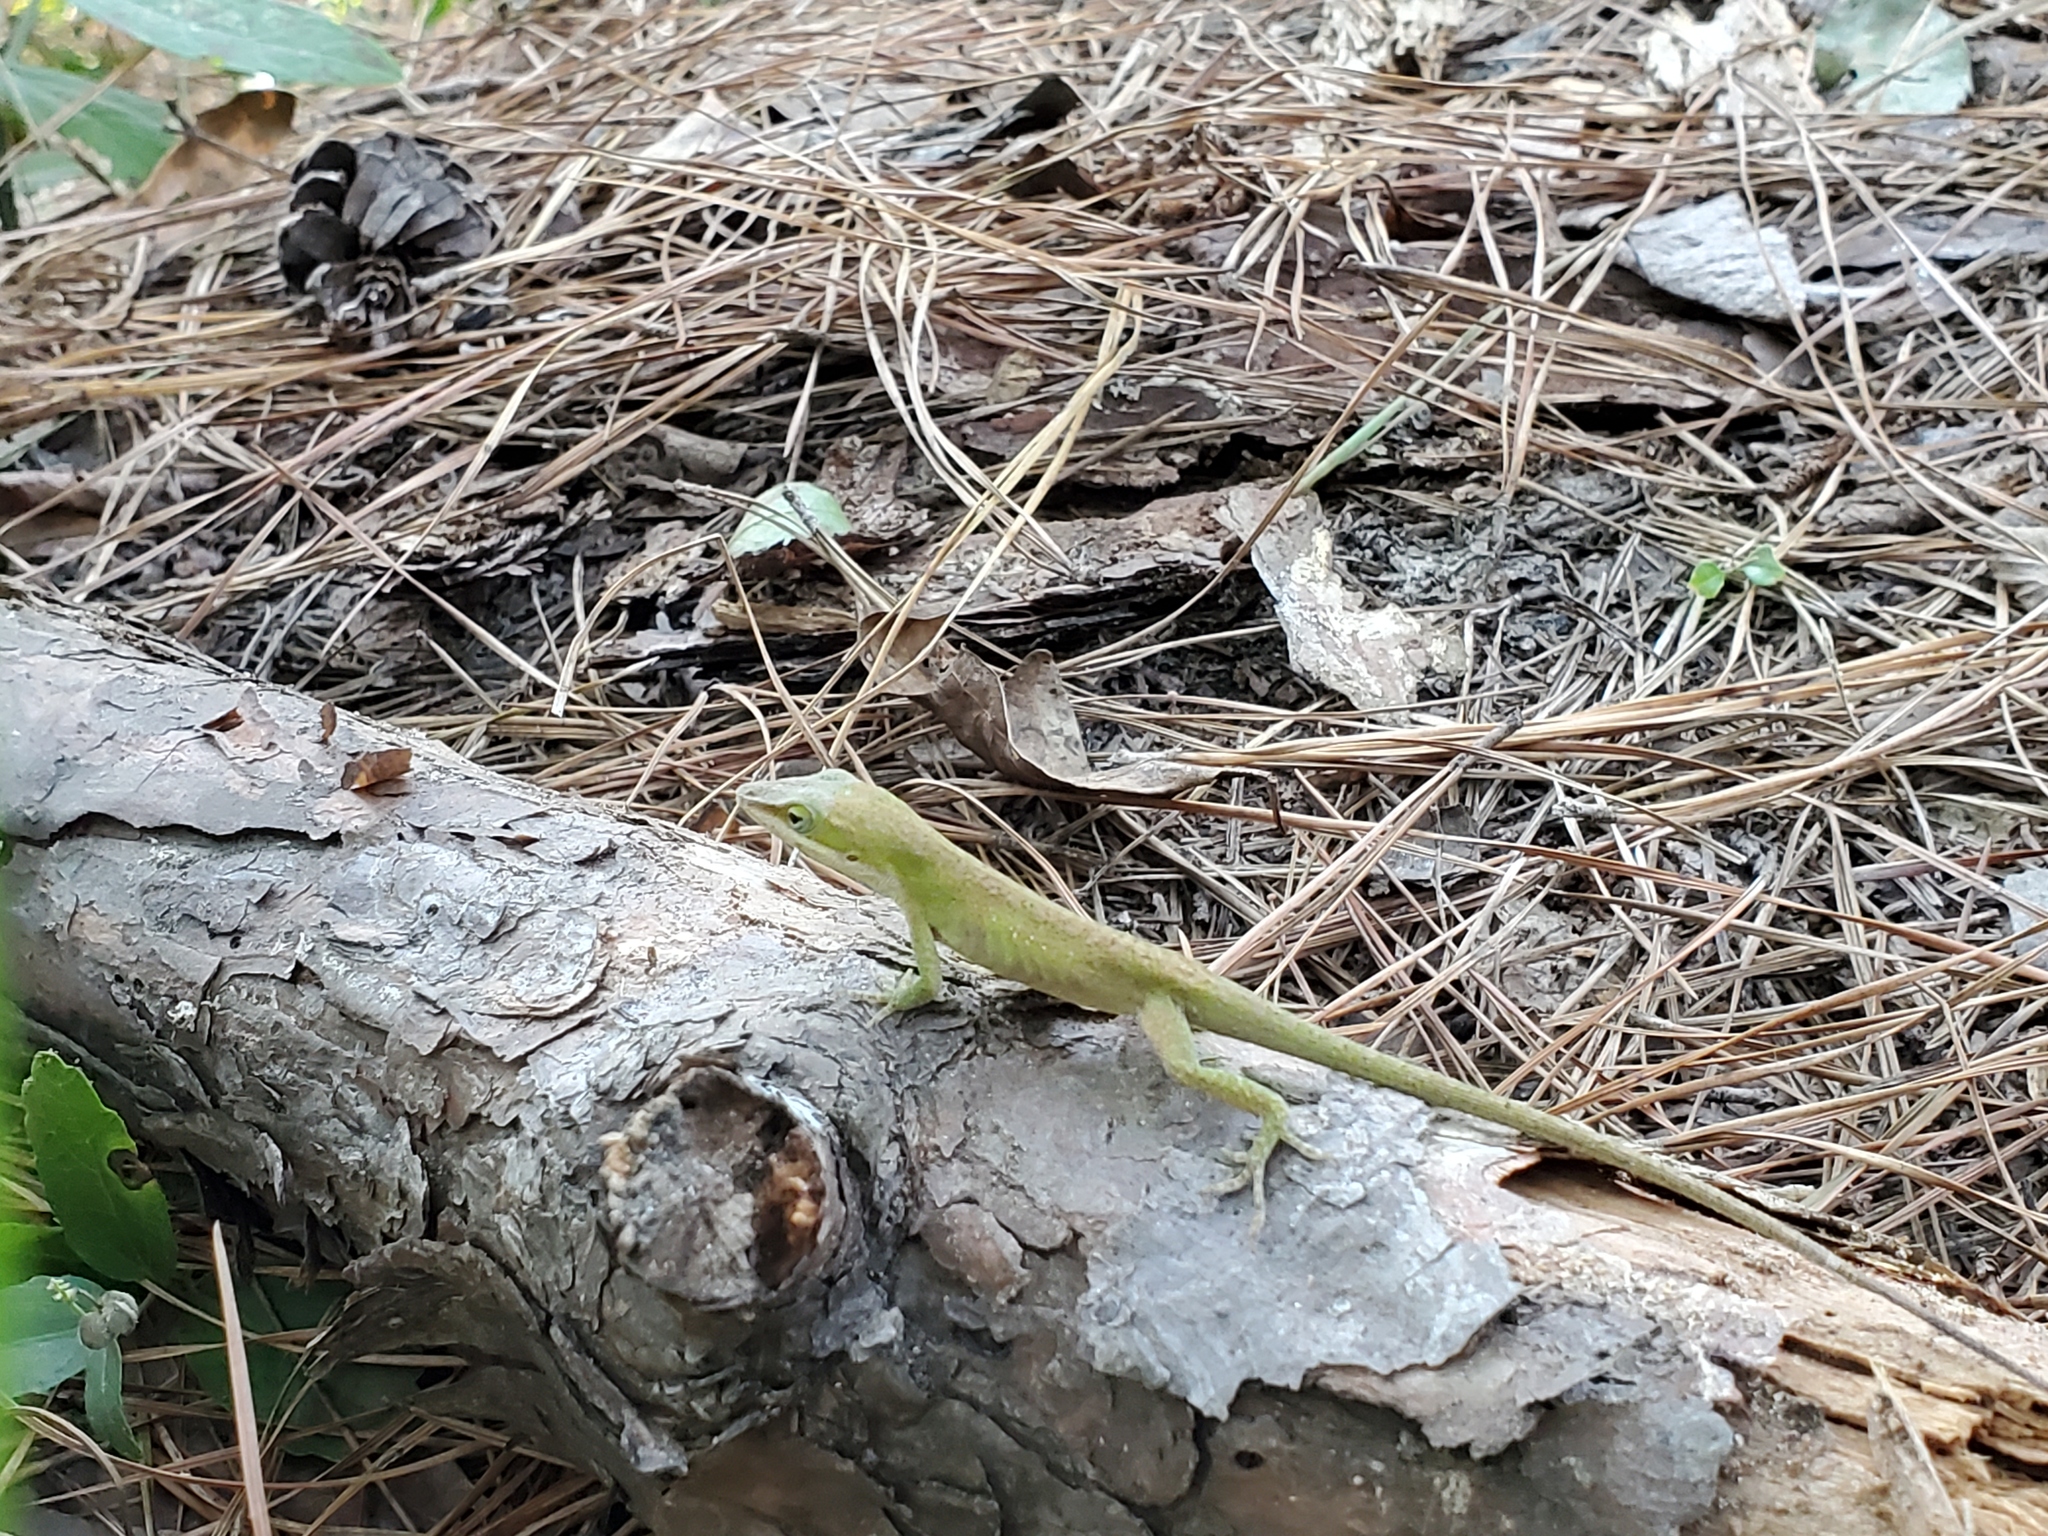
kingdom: Animalia
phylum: Chordata
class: Squamata
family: Dactyloidae
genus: Anolis
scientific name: Anolis carolinensis
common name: Green anole
